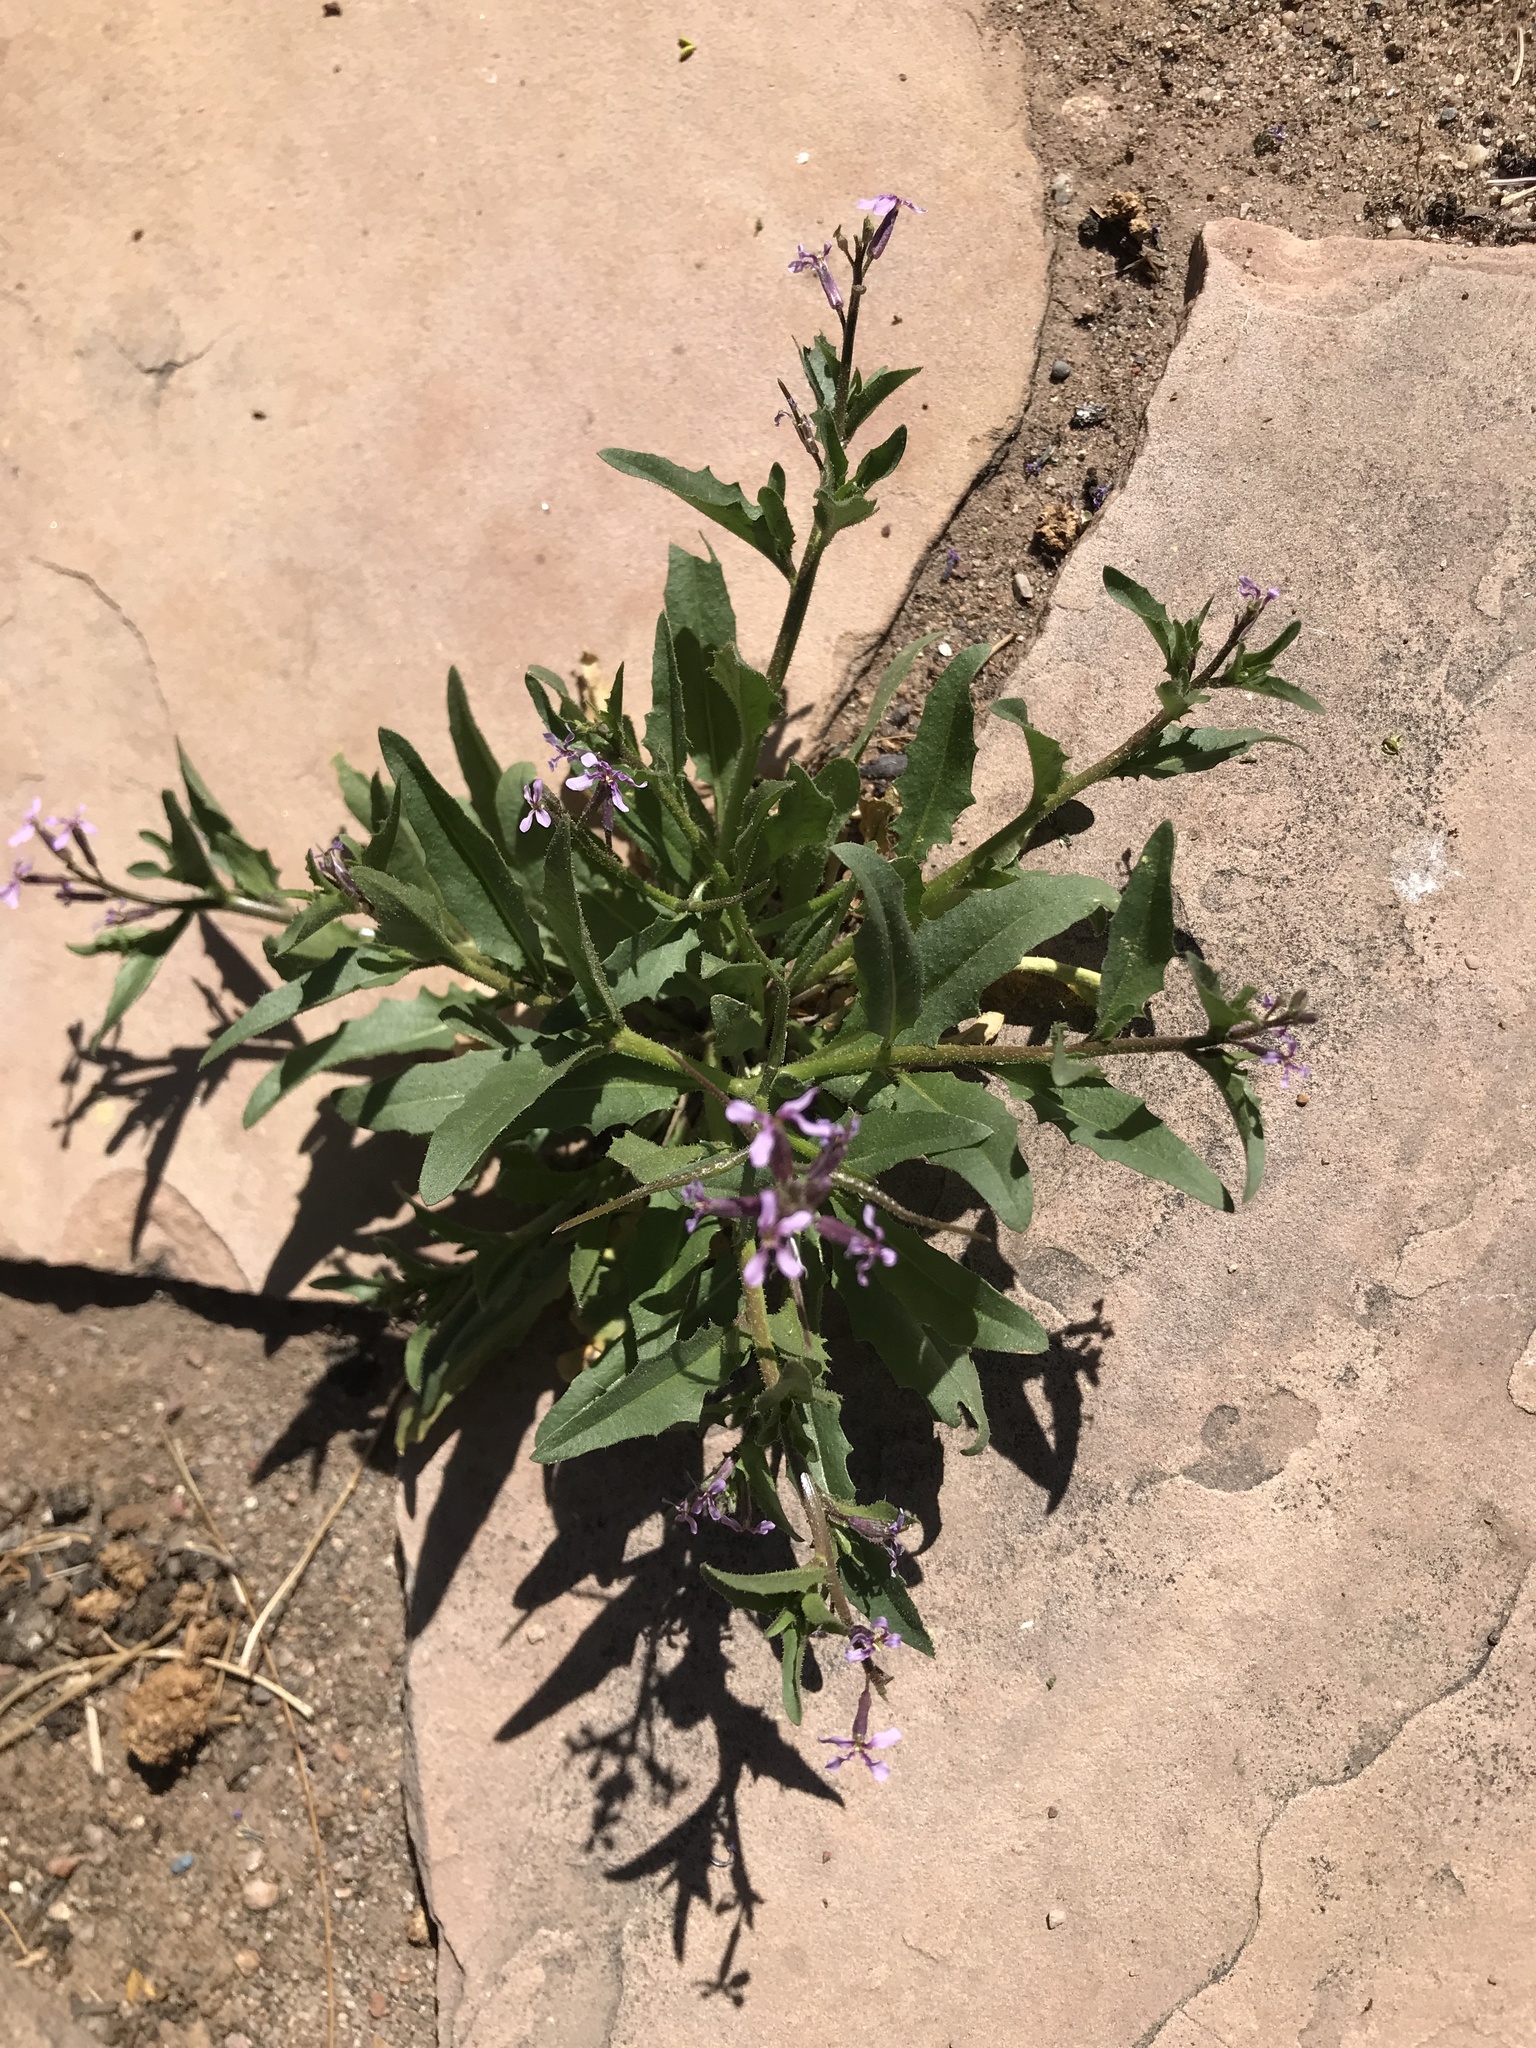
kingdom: Plantae
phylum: Tracheophyta
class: Magnoliopsida
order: Brassicales
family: Brassicaceae
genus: Chorispora
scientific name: Chorispora tenella
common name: Crossflower
